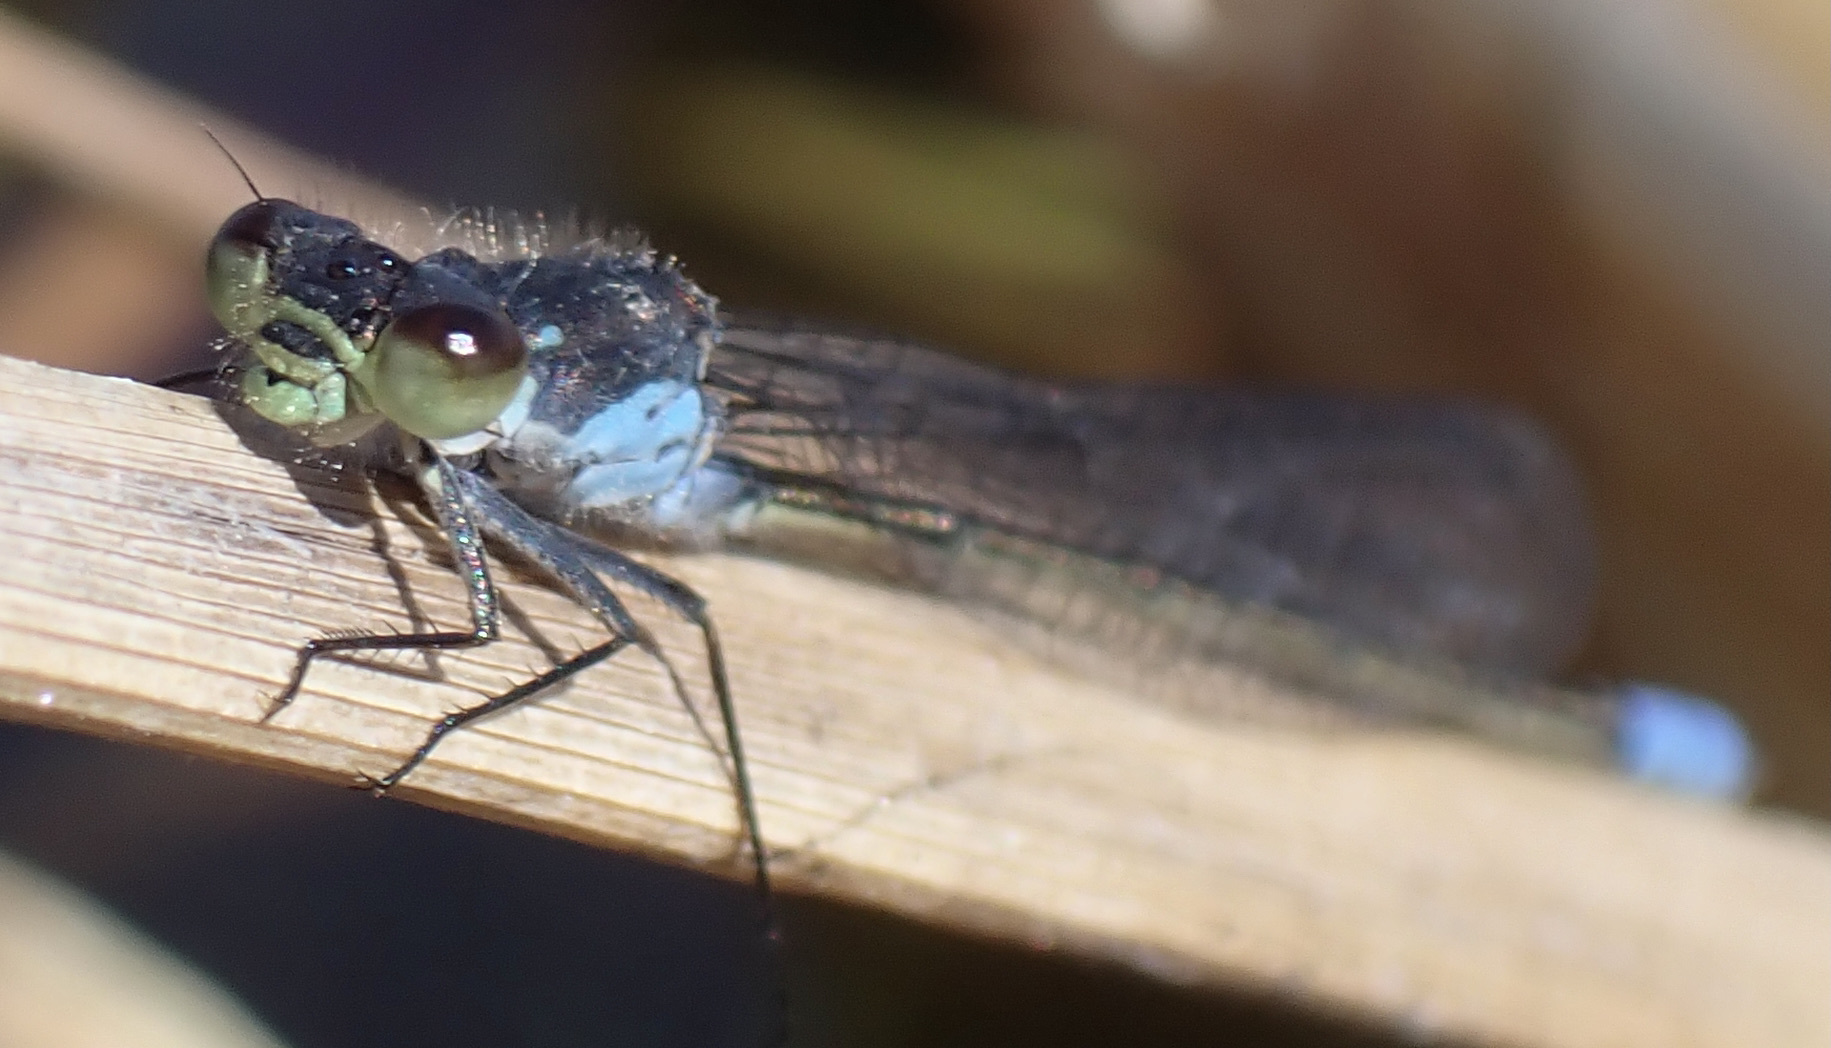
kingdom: Animalia
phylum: Arthropoda
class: Insecta
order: Odonata
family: Coenagrionidae
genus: Pseudagrion
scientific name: Pseudagrion deningi
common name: Dening's sprite
